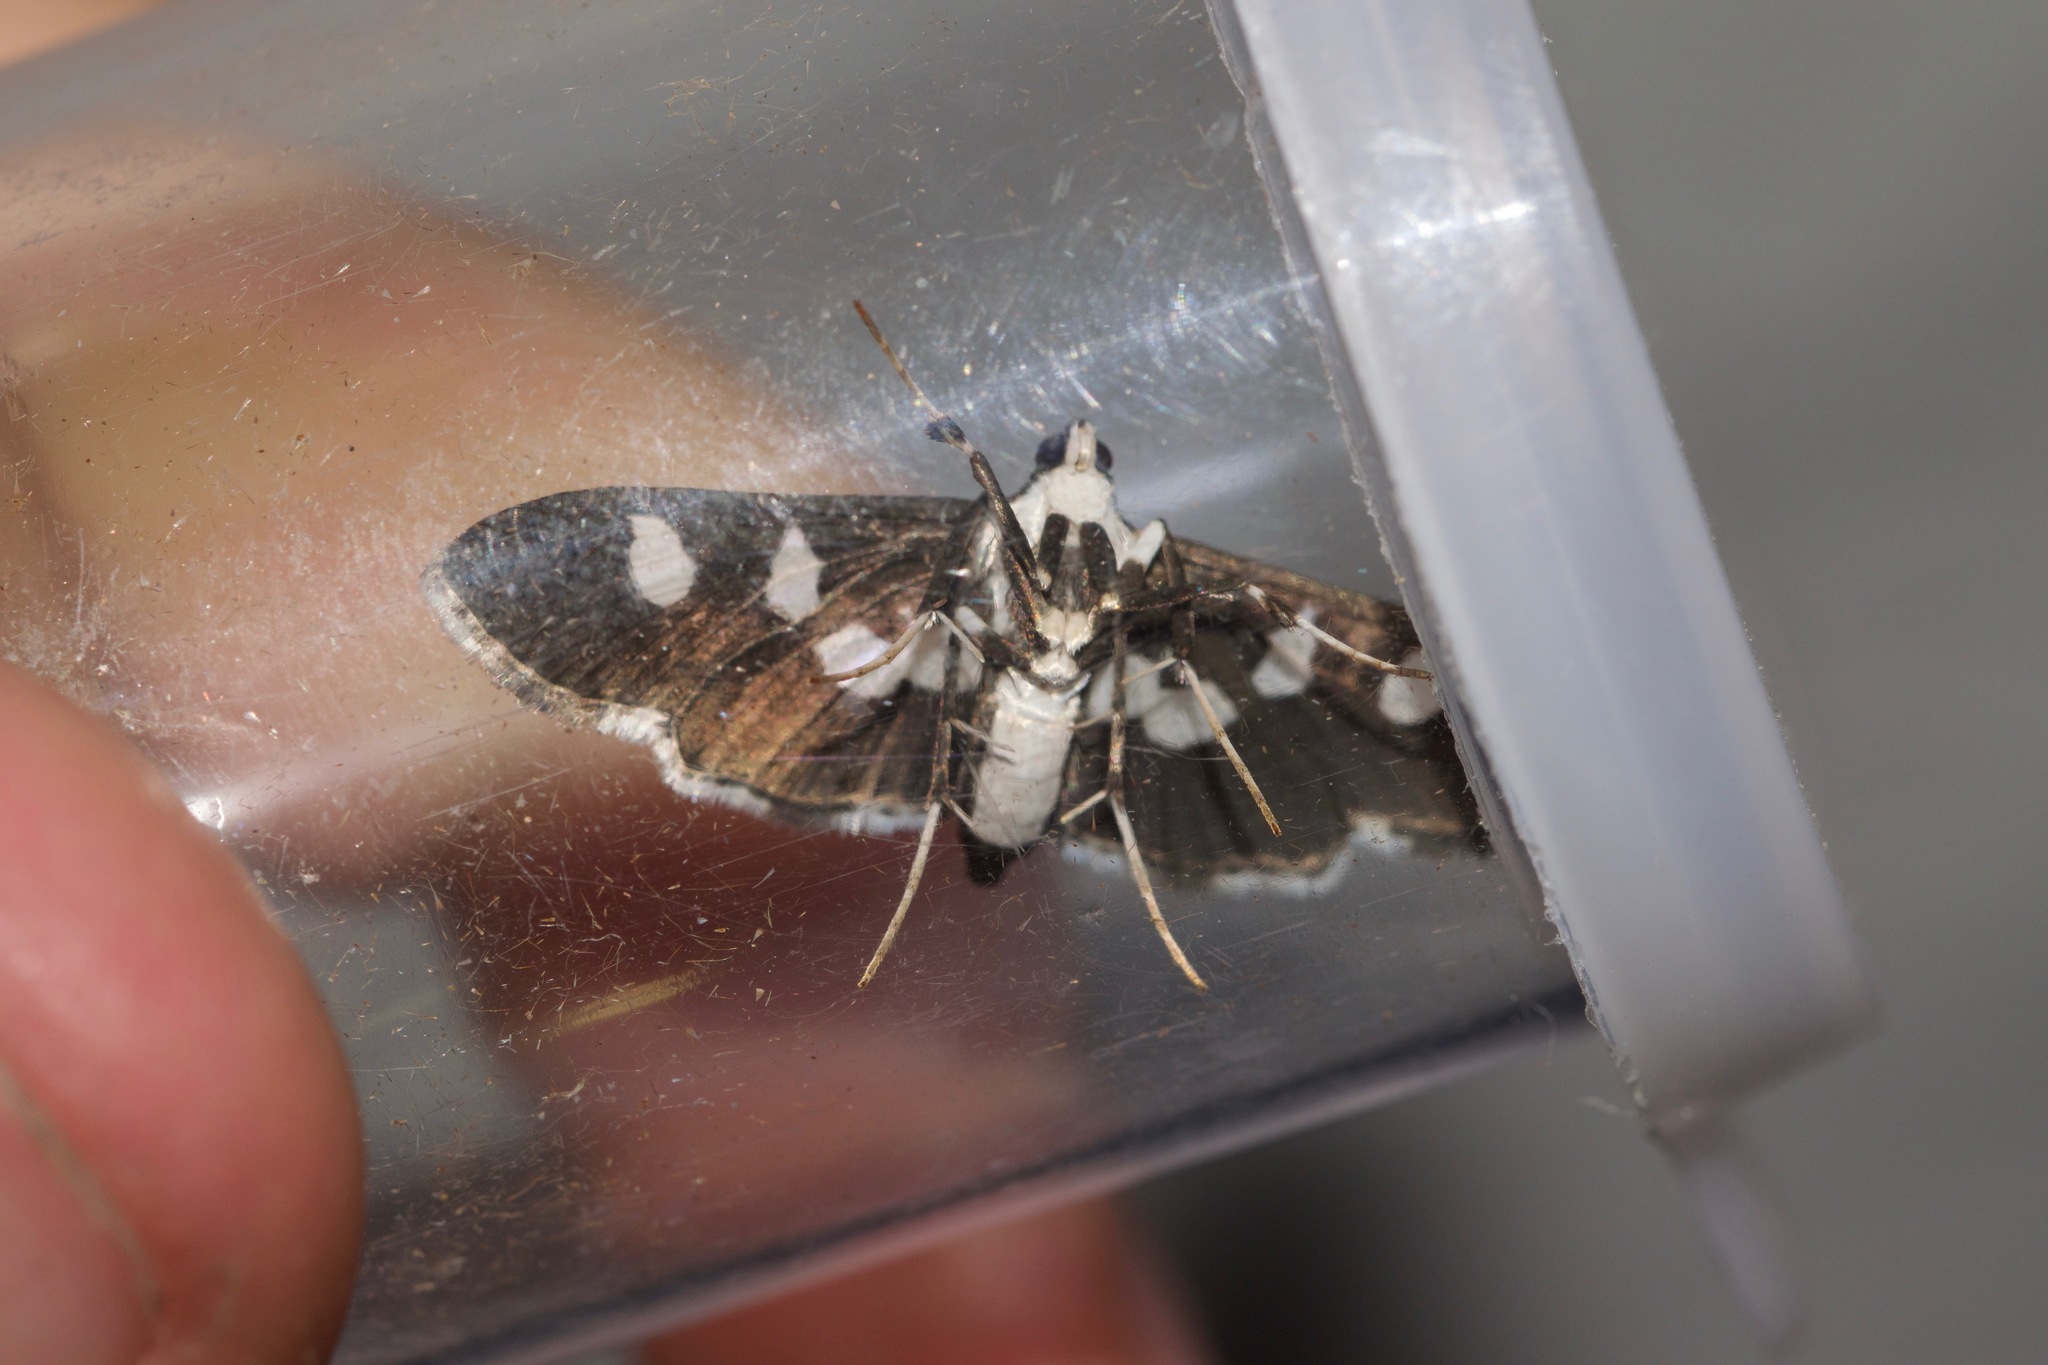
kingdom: Animalia
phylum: Arthropoda
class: Insecta
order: Lepidoptera
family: Crambidae
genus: Desmia
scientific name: Desmia funeralis
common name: Grape leaf folder moth
